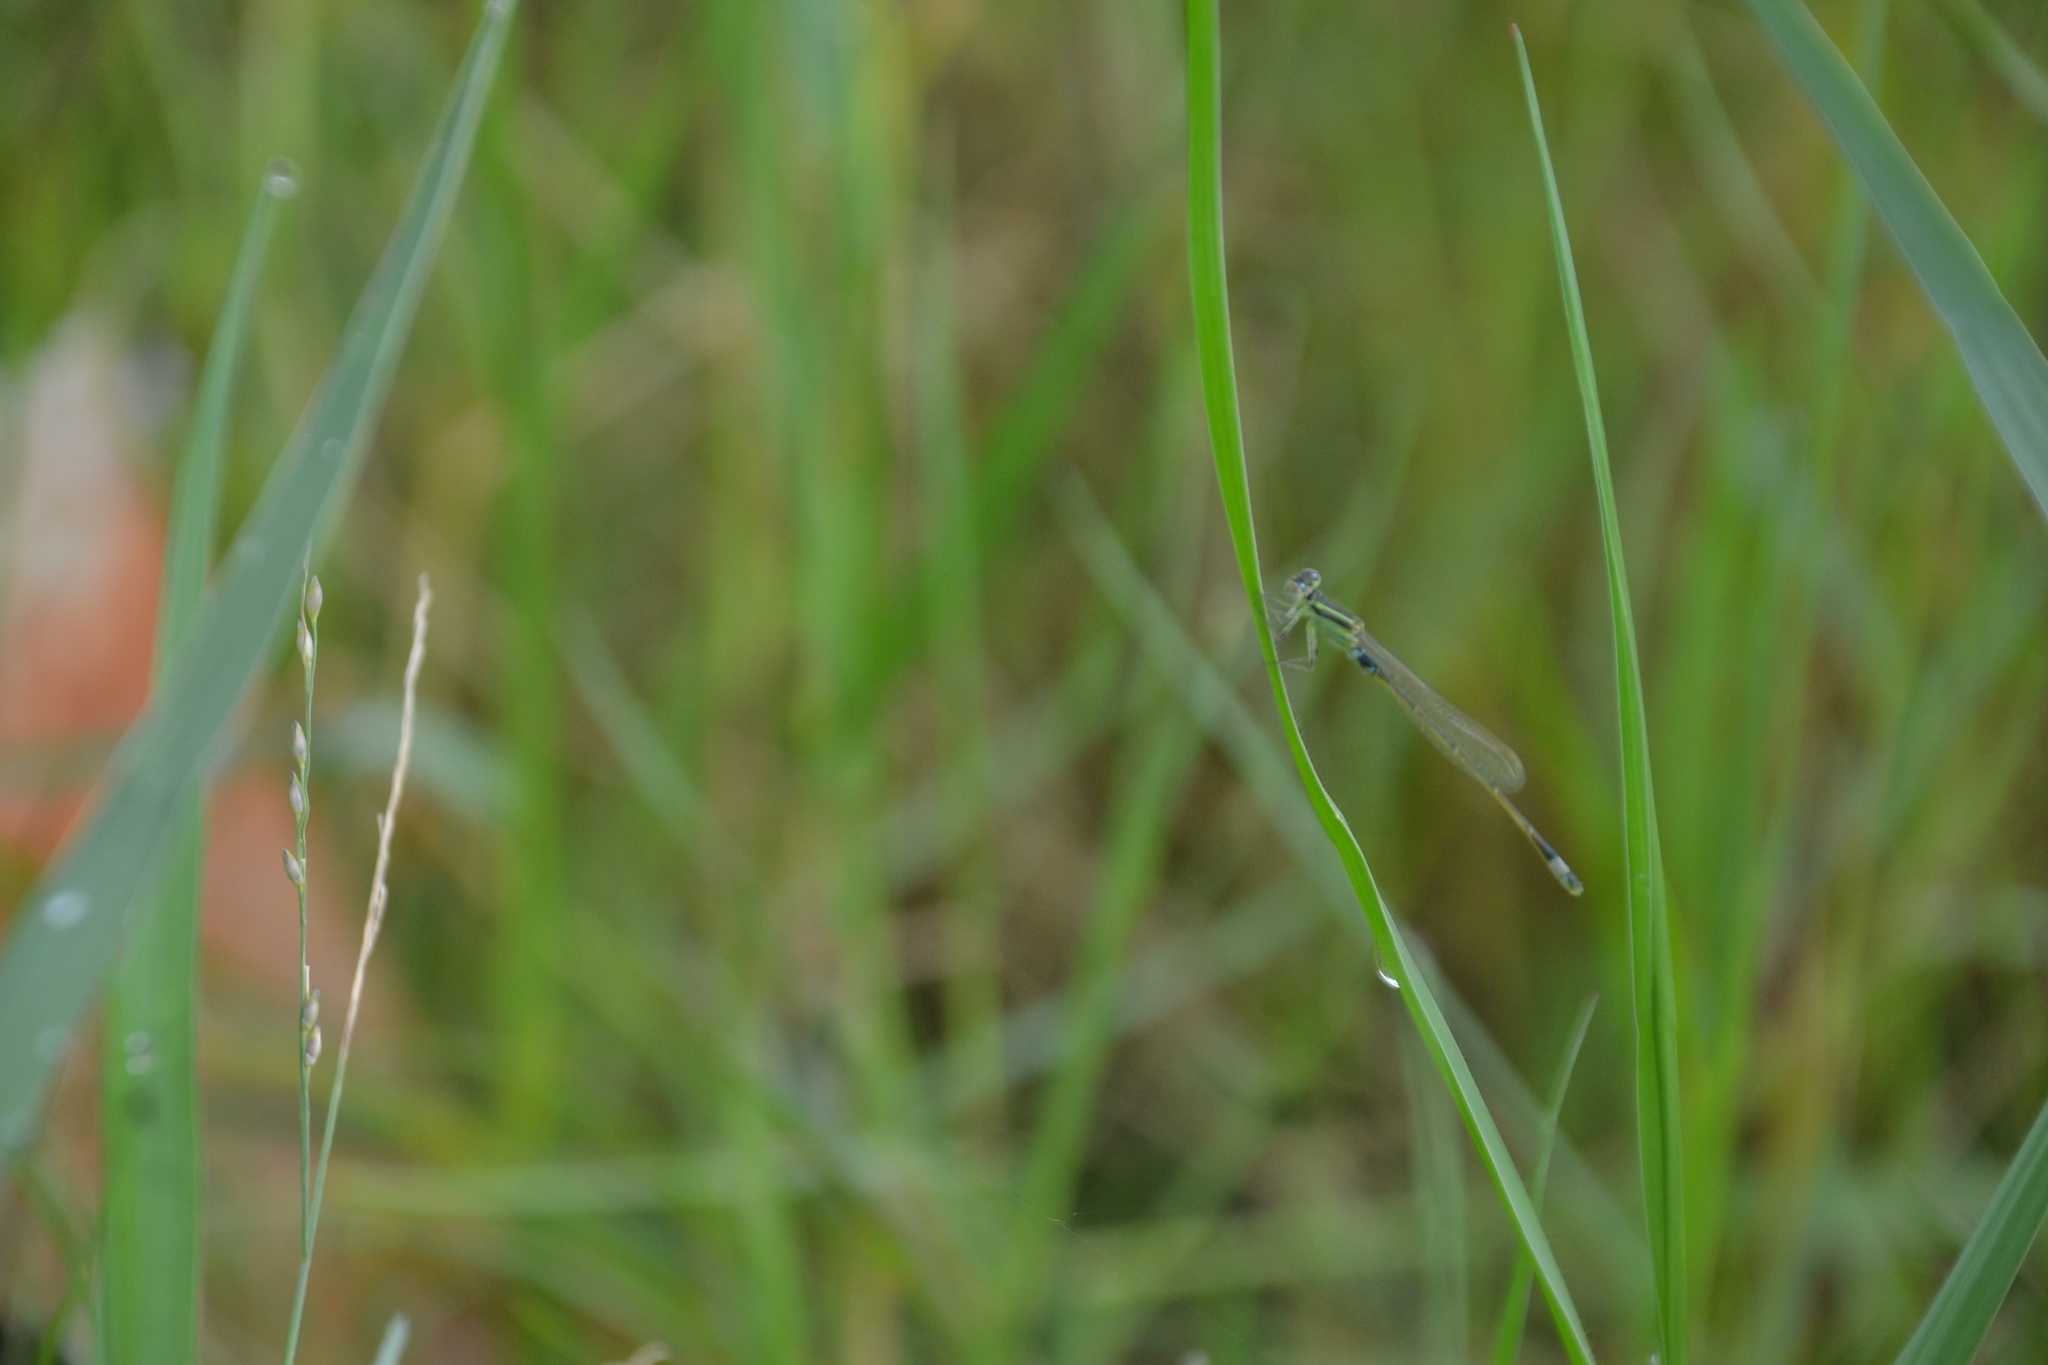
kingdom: Animalia
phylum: Arthropoda
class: Insecta
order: Odonata
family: Coenagrionidae
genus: Ischnura
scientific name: Ischnura senegalensis
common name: Tropical bluetail
